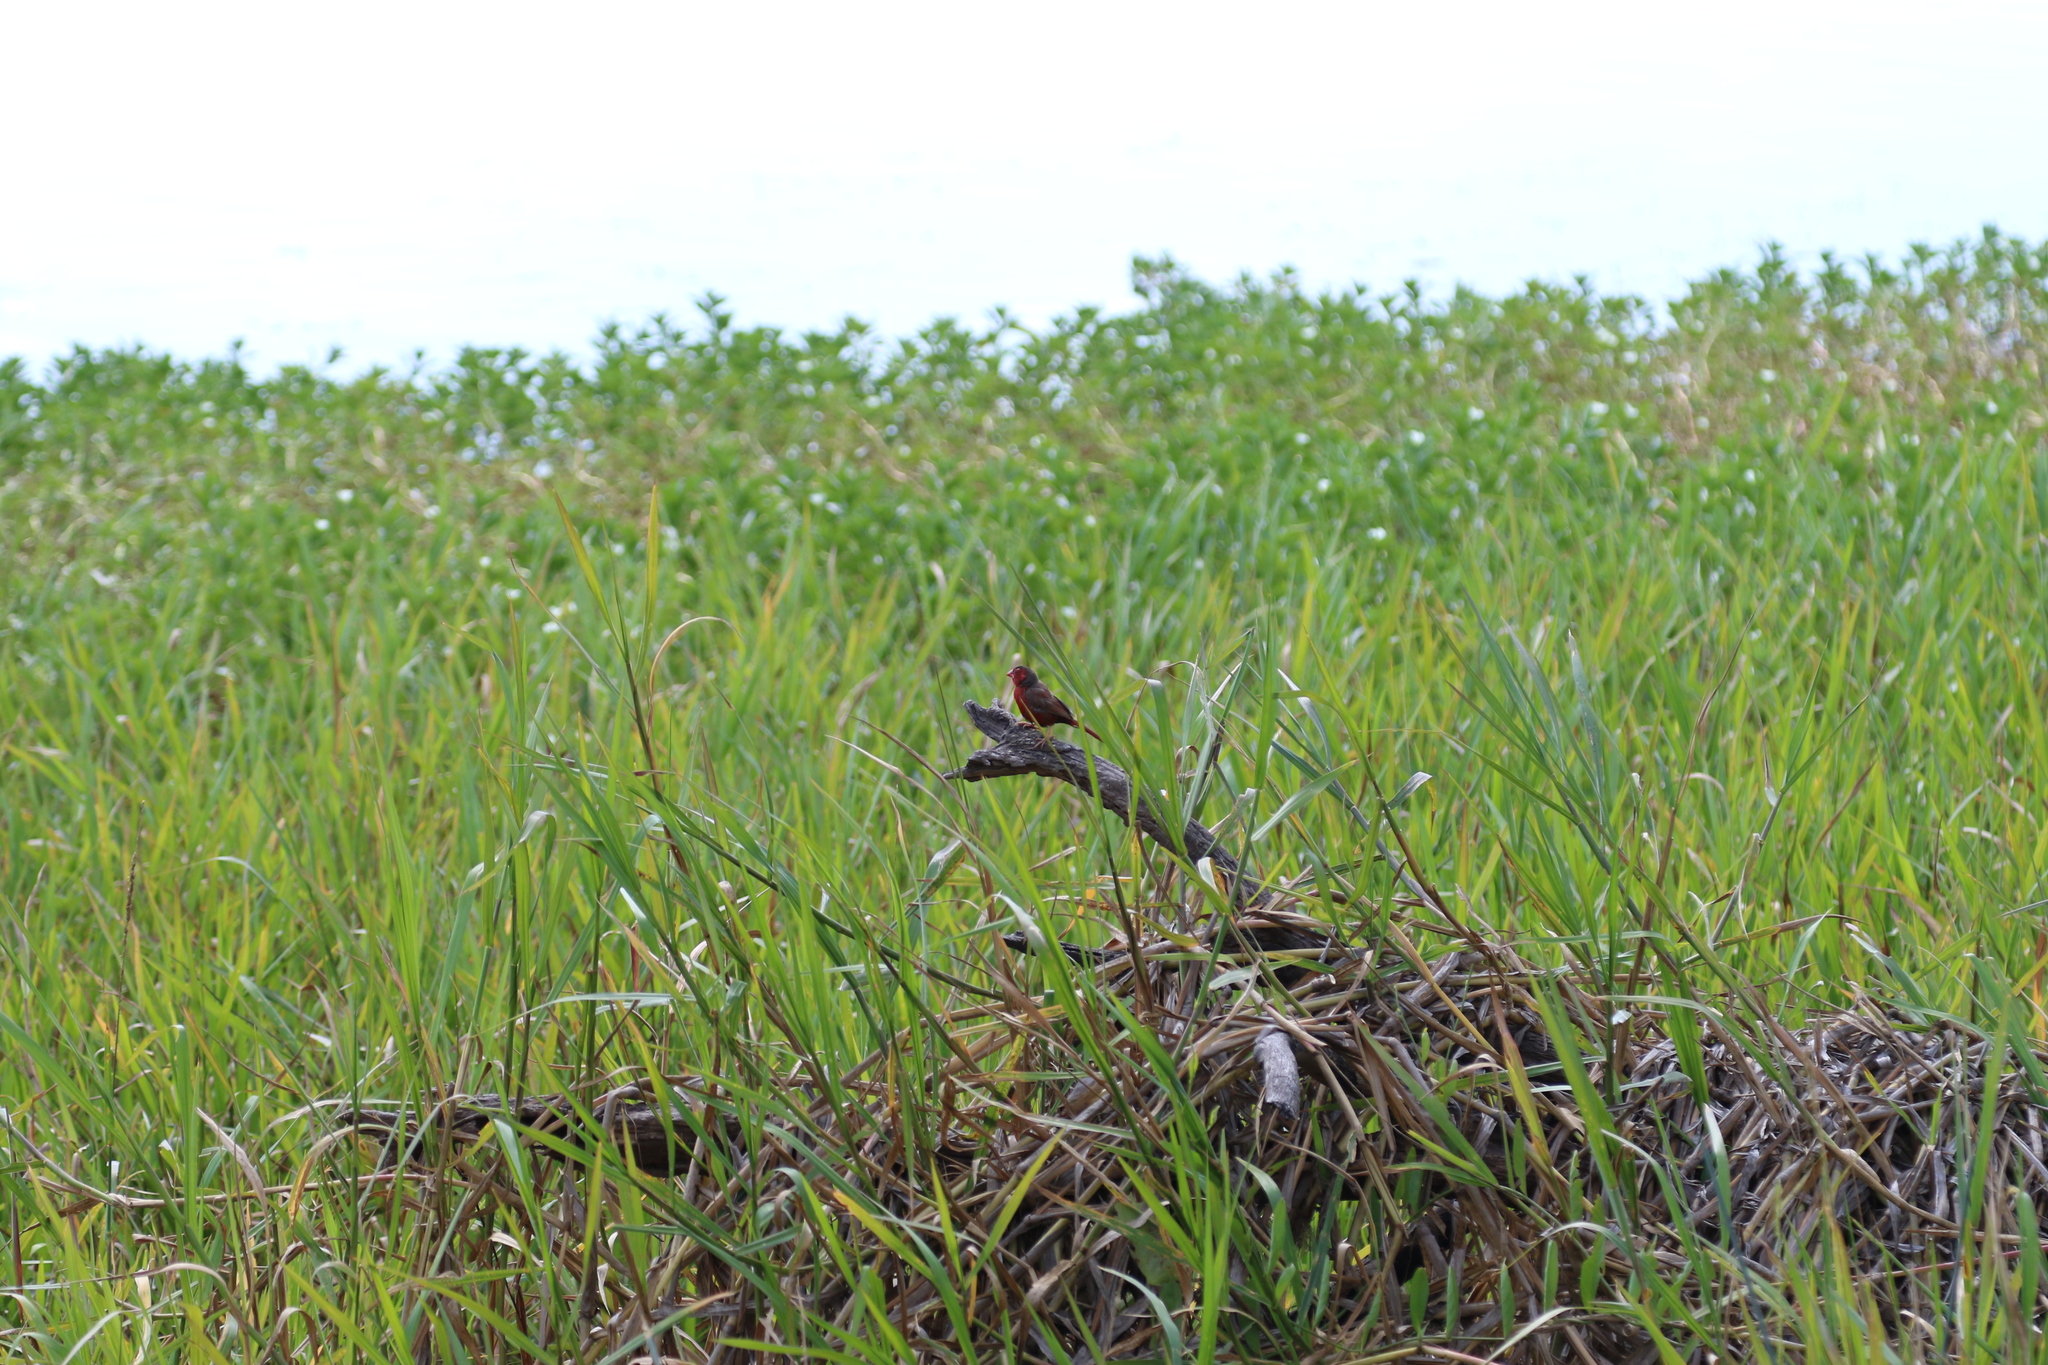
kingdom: Animalia
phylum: Chordata
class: Aves
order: Passeriformes
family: Estrildidae
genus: Neochmia
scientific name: Neochmia phaeton
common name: Crimson finch
